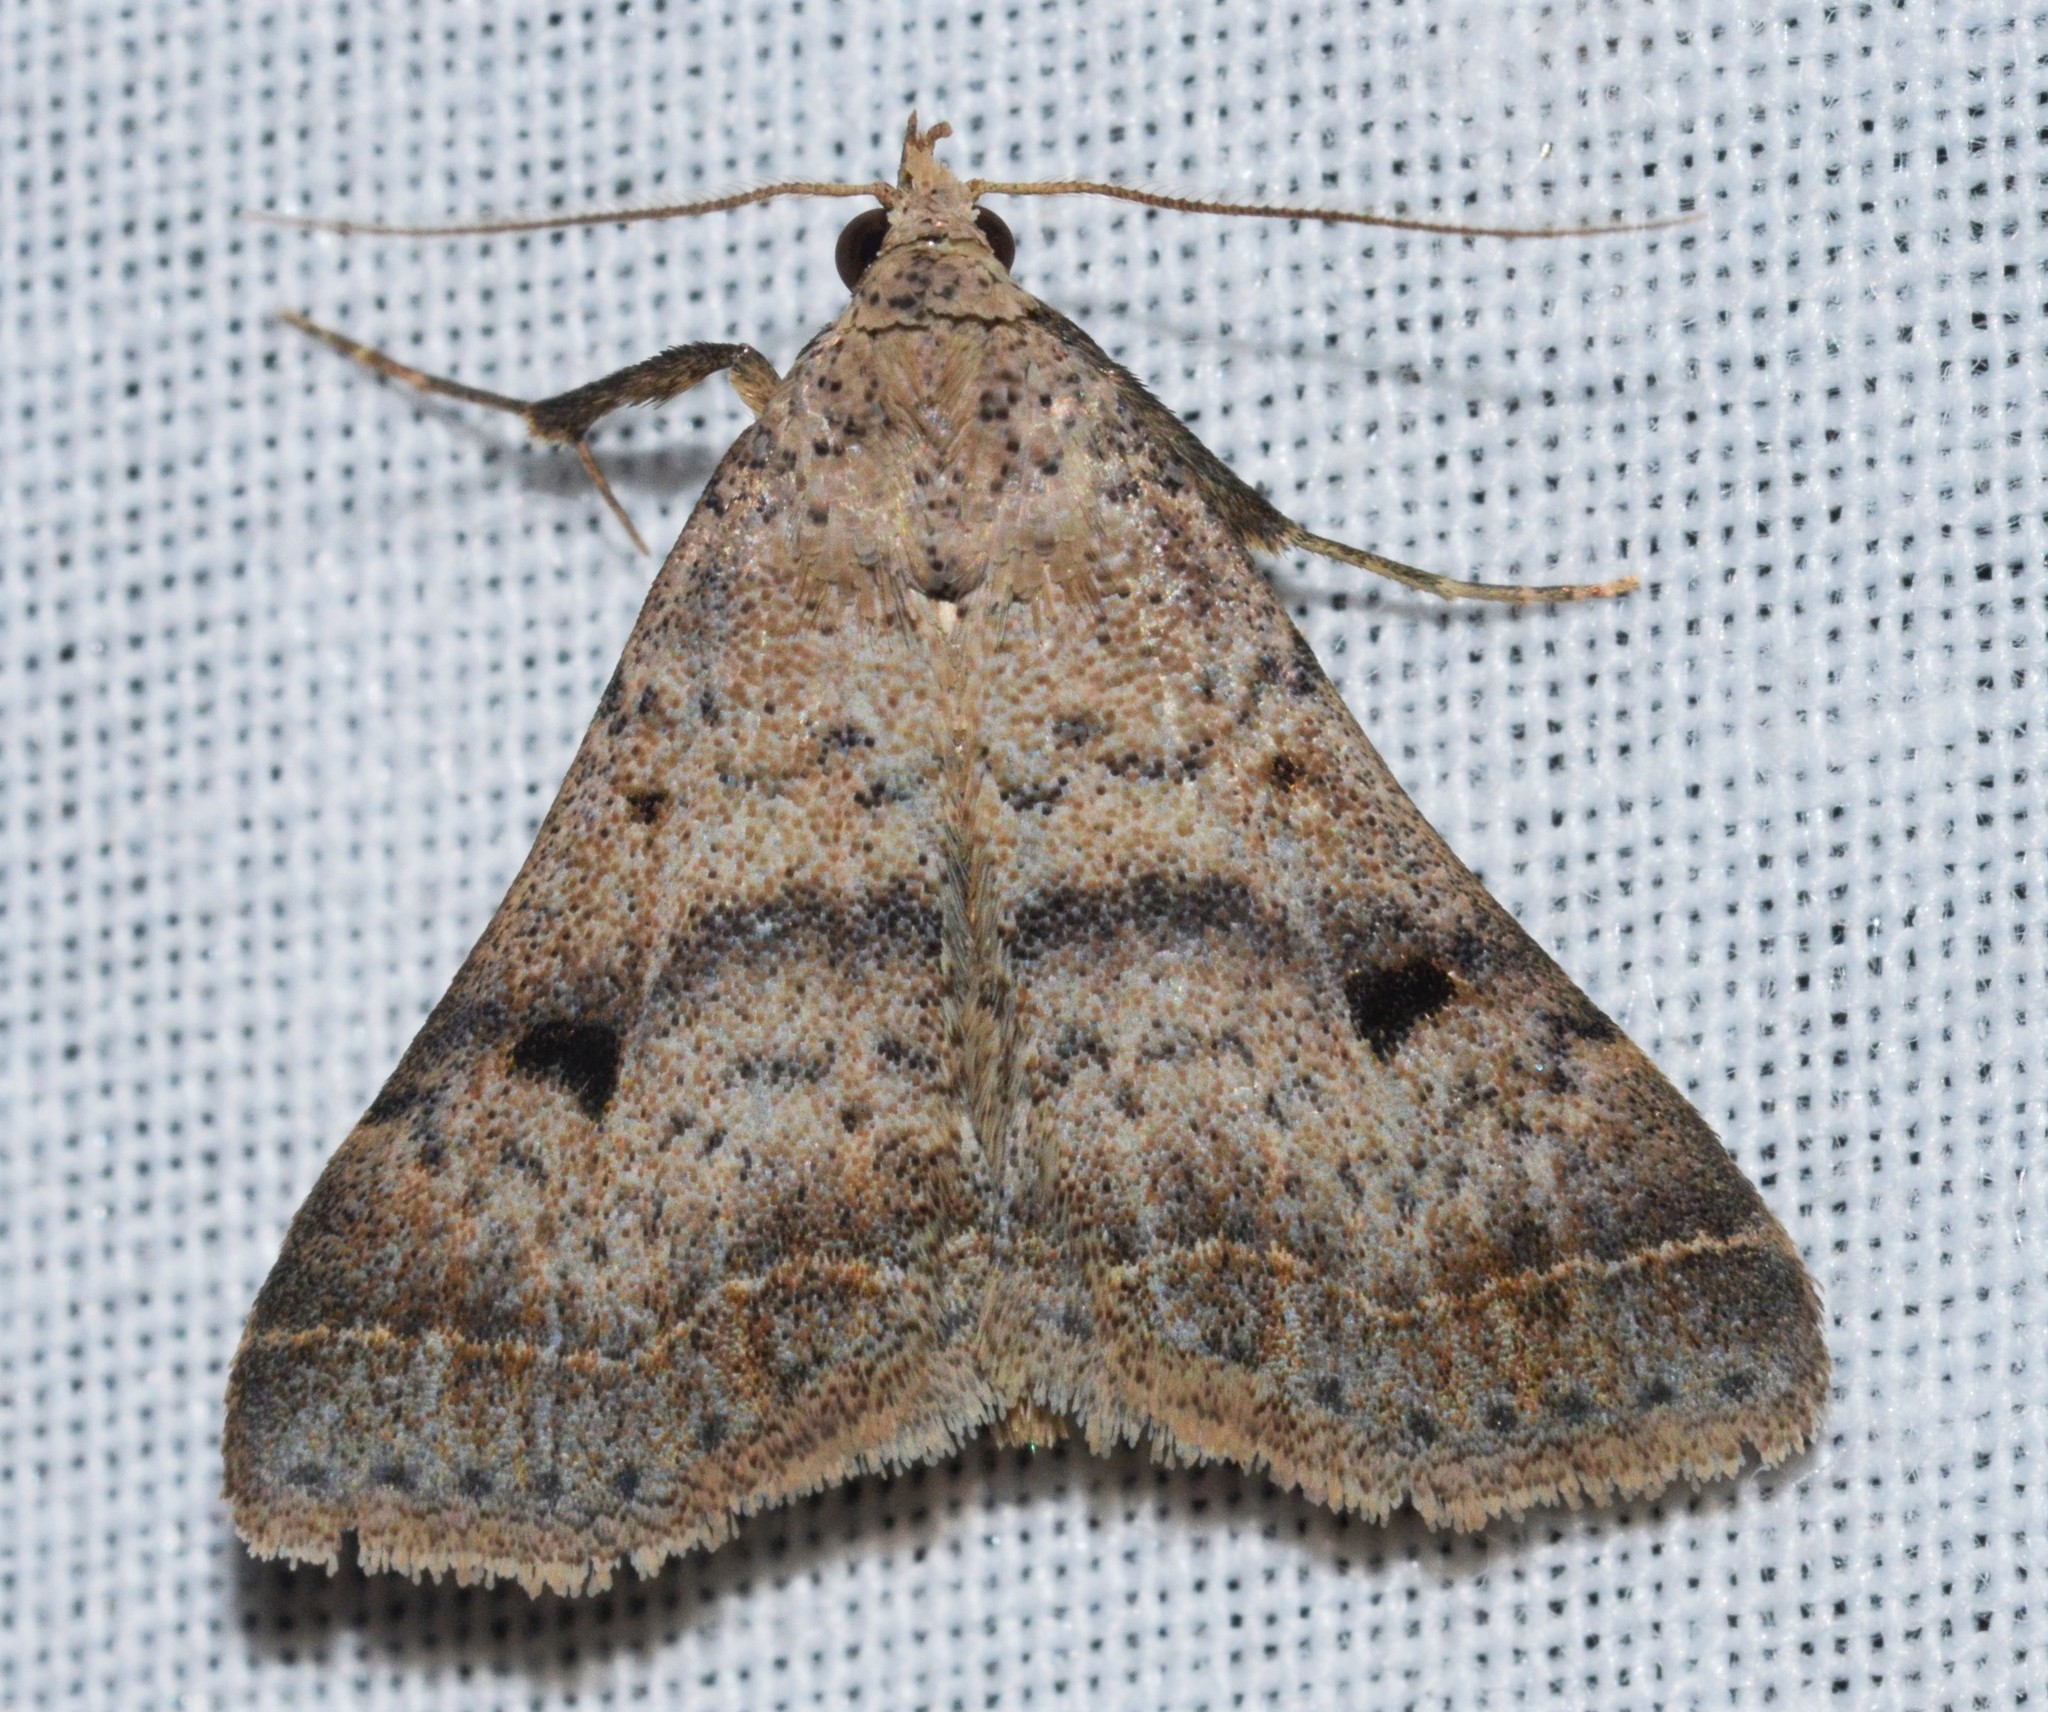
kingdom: Animalia
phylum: Arthropoda
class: Insecta
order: Lepidoptera
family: Erebidae
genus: Bleptina
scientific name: Bleptina caradrinalis
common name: Bent-winged owlet
